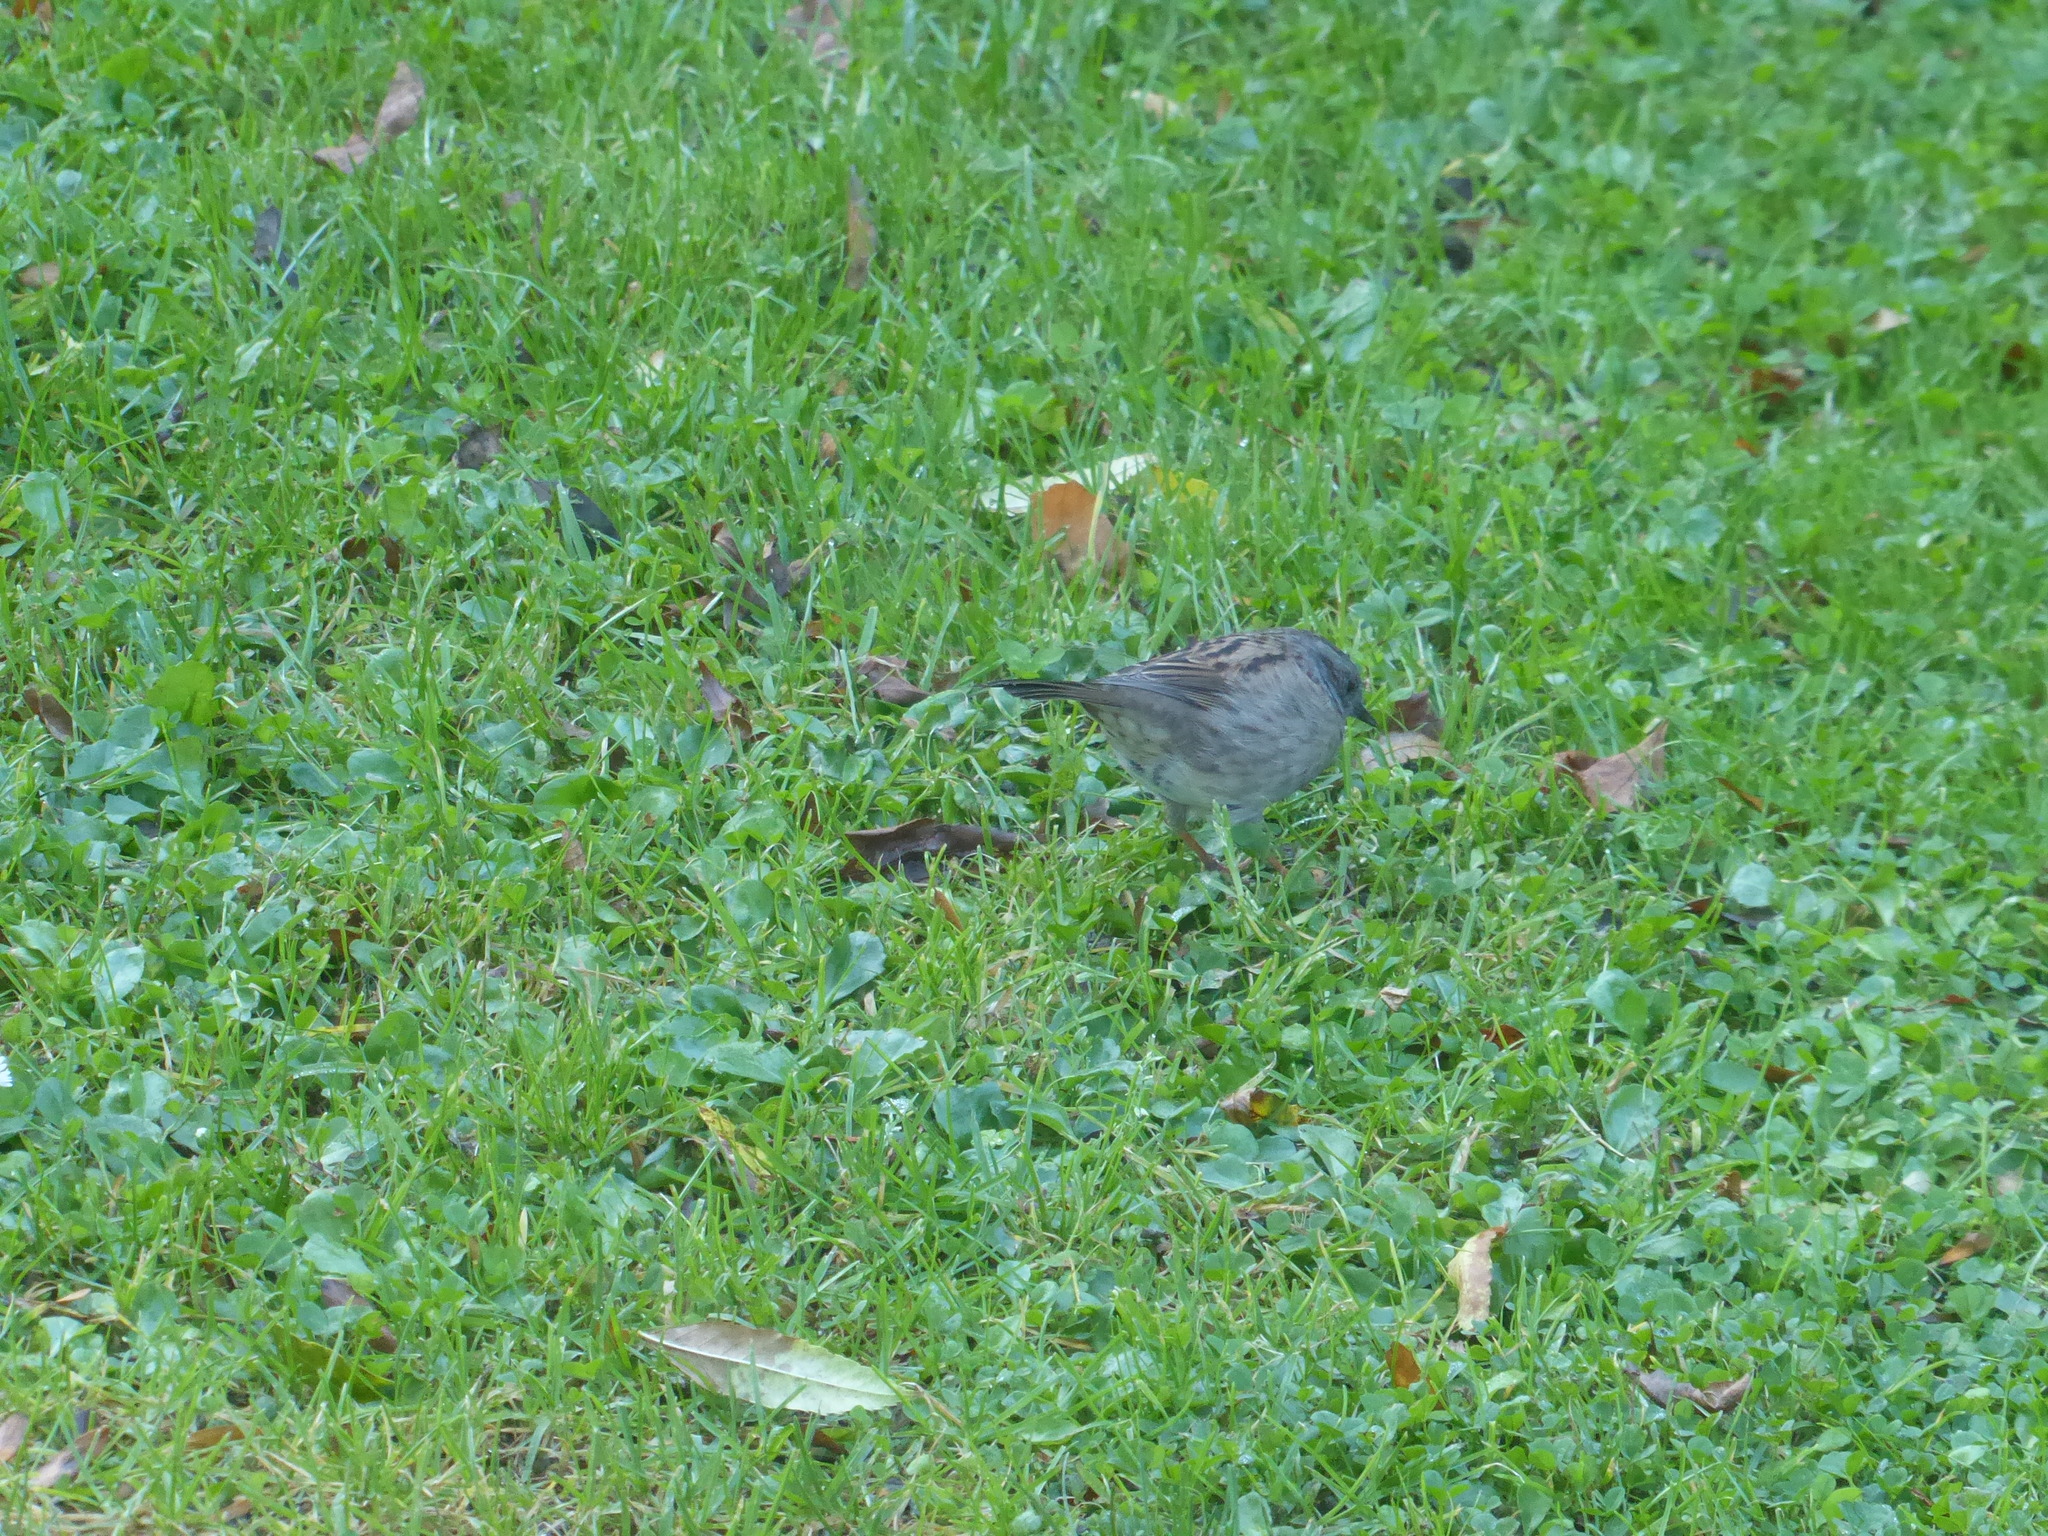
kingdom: Animalia
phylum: Chordata
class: Aves
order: Passeriformes
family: Prunellidae
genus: Prunella
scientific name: Prunella modularis
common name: Dunnock
